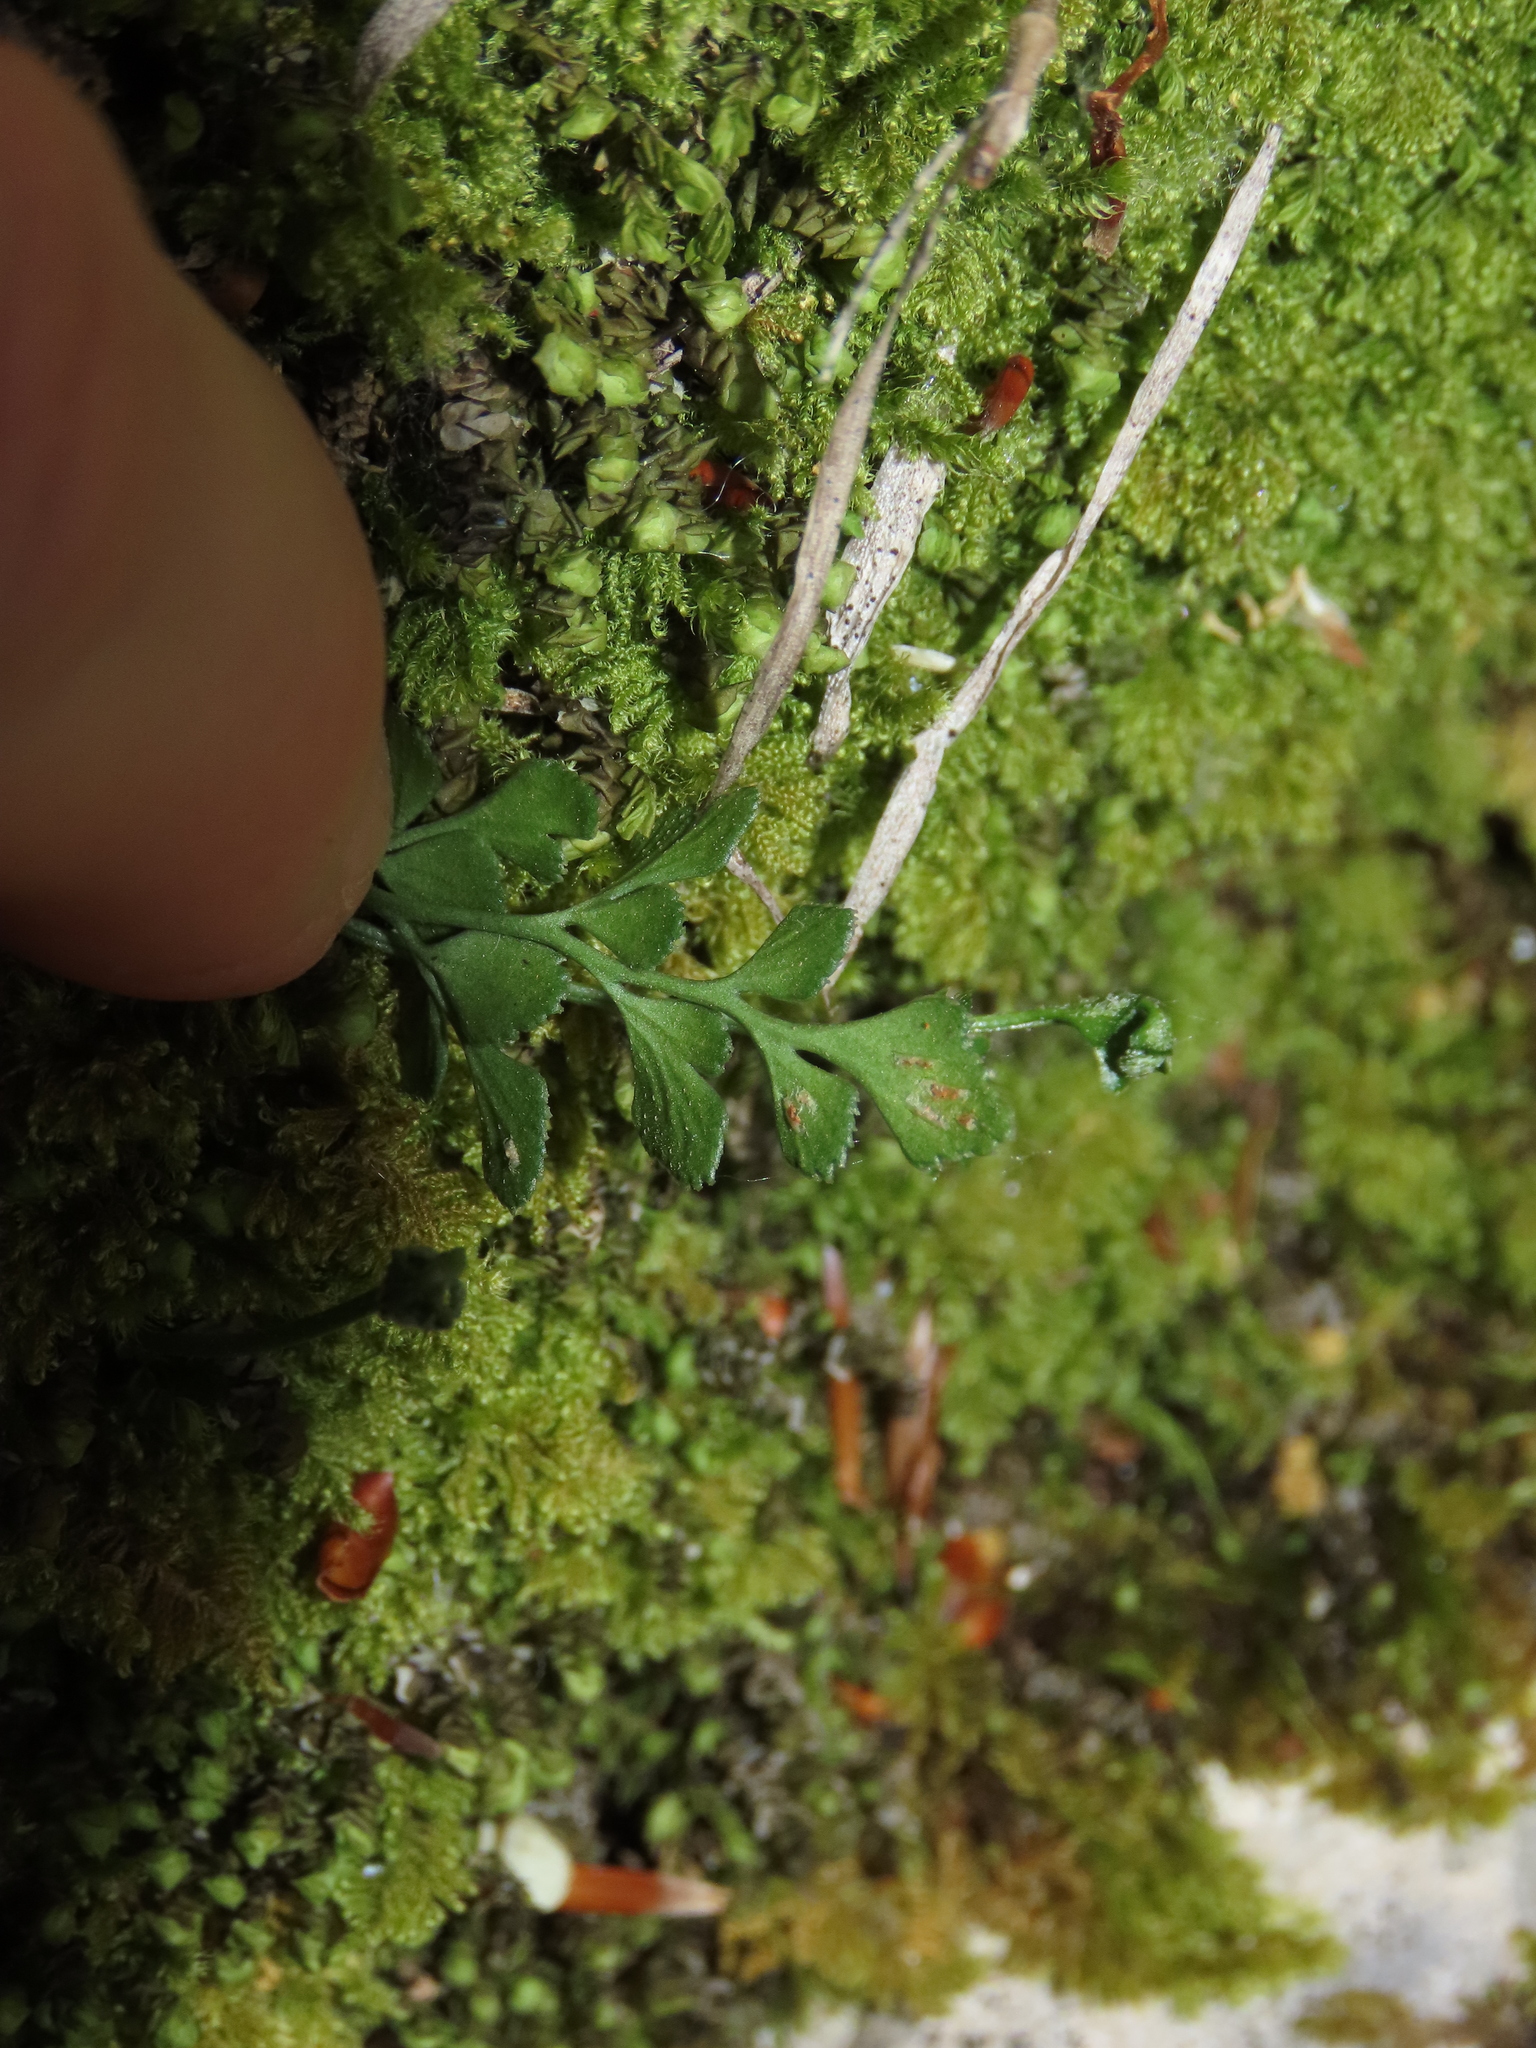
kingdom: Plantae
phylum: Tracheophyta
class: Polypodiopsida
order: Polypodiales
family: Aspleniaceae
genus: Asplenium
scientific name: Asplenium ruta-muraria
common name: Wall-rue
